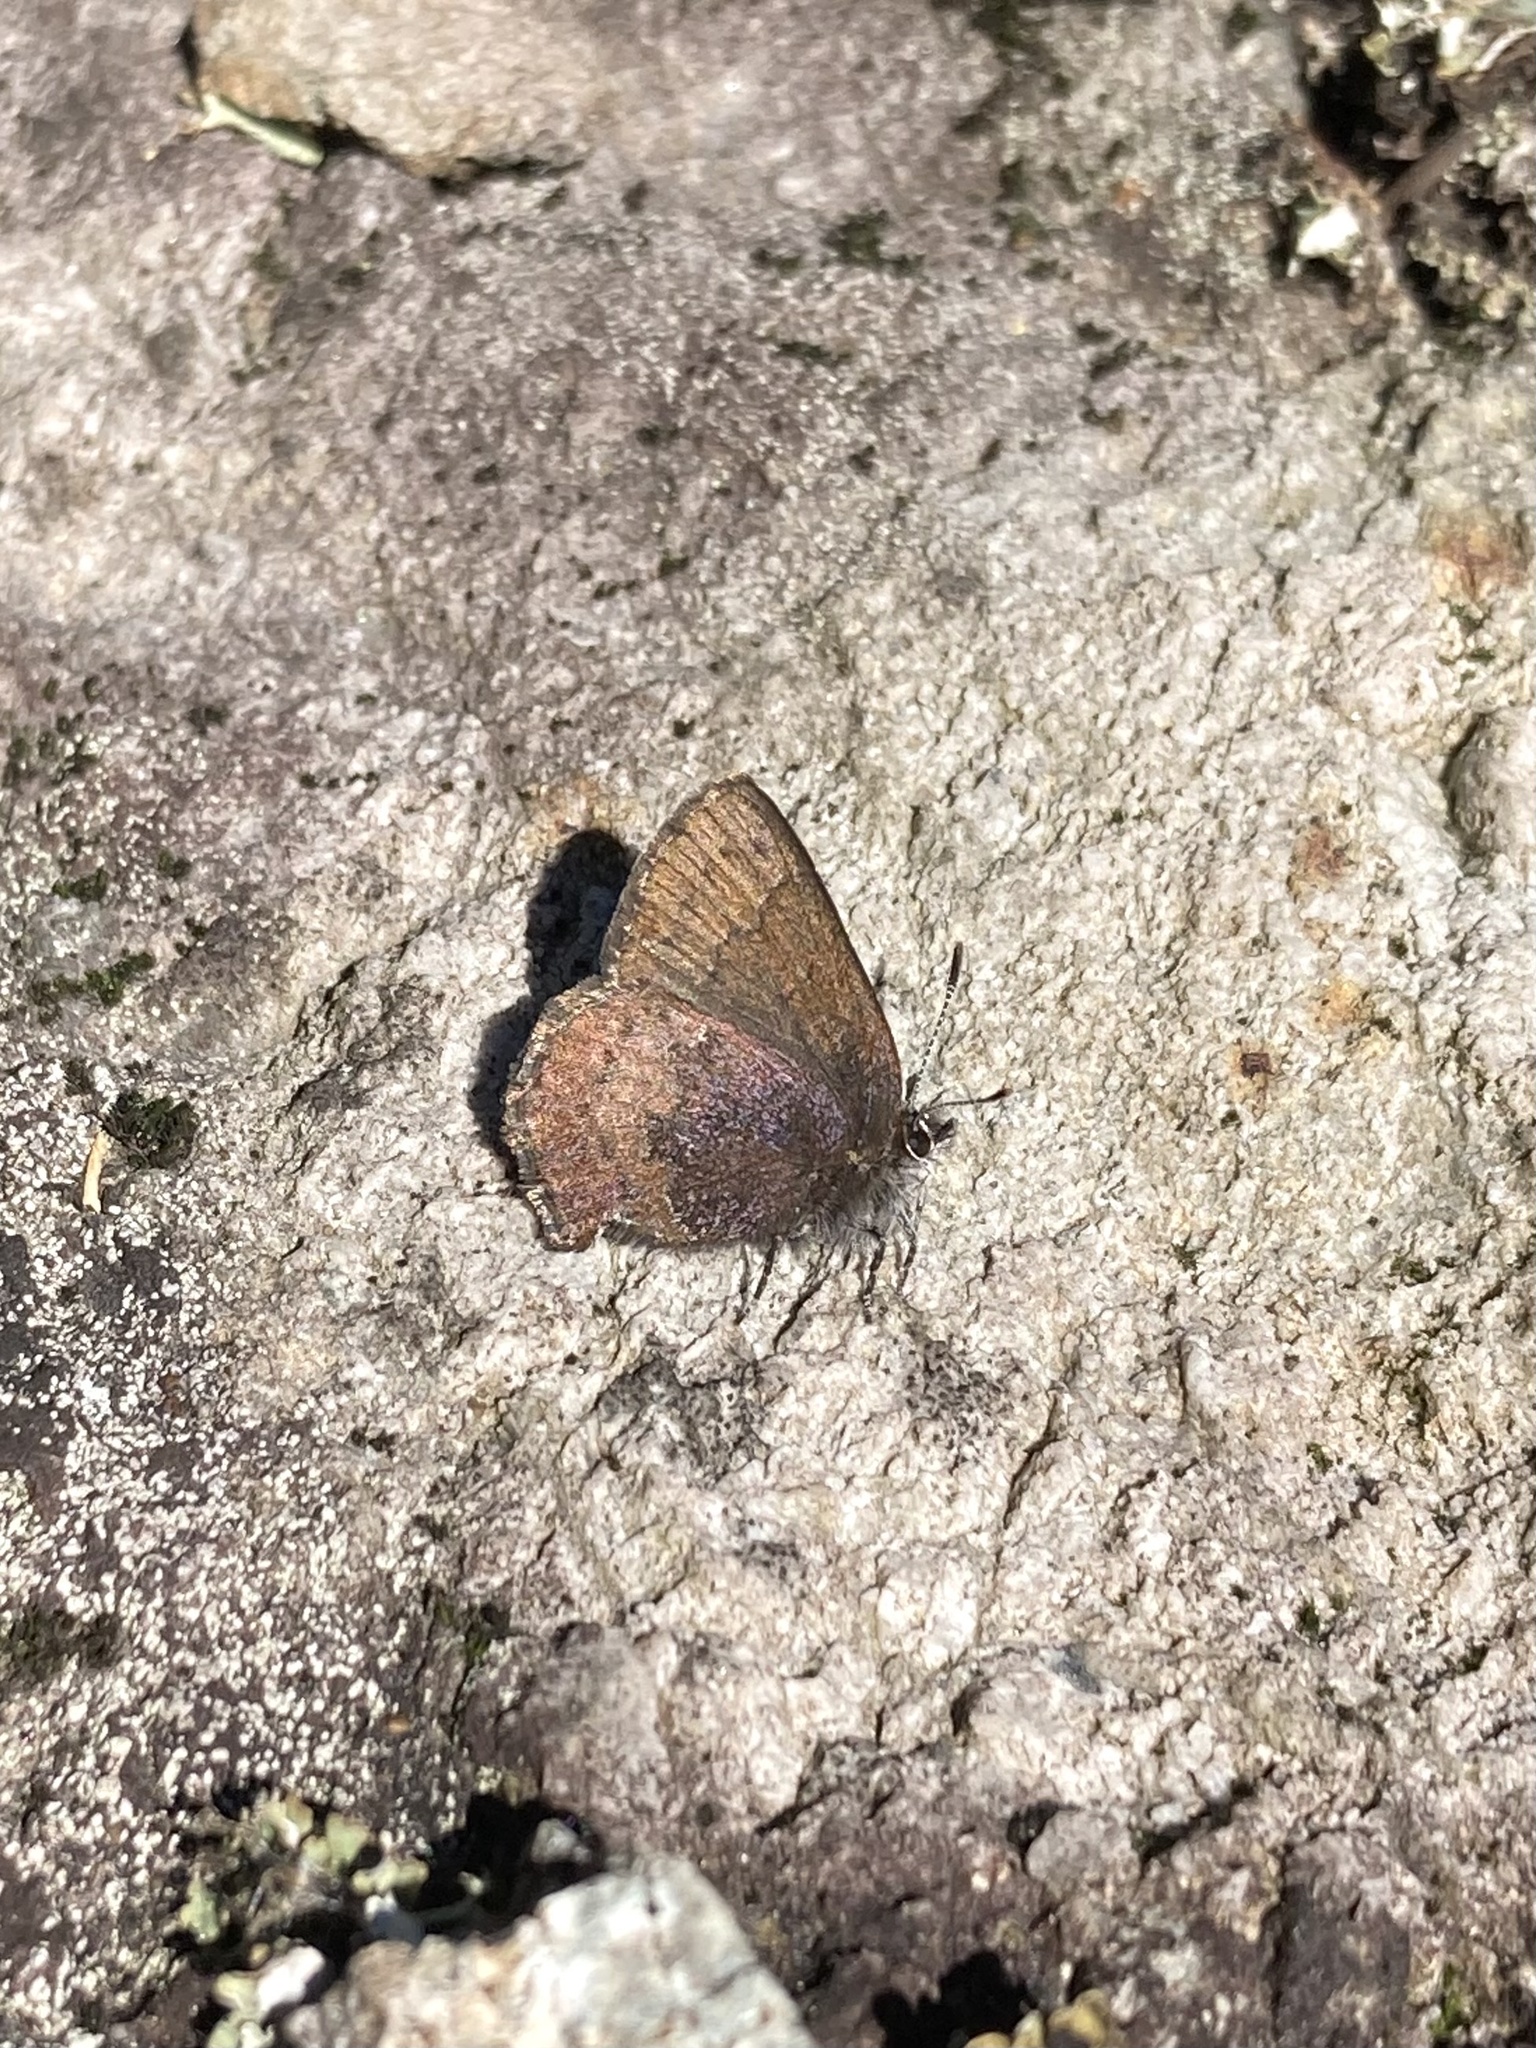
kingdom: Animalia
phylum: Arthropoda
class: Insecta
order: Lepidoptera
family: Lycaenidae
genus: Incisalia
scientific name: Incisalia irioides
